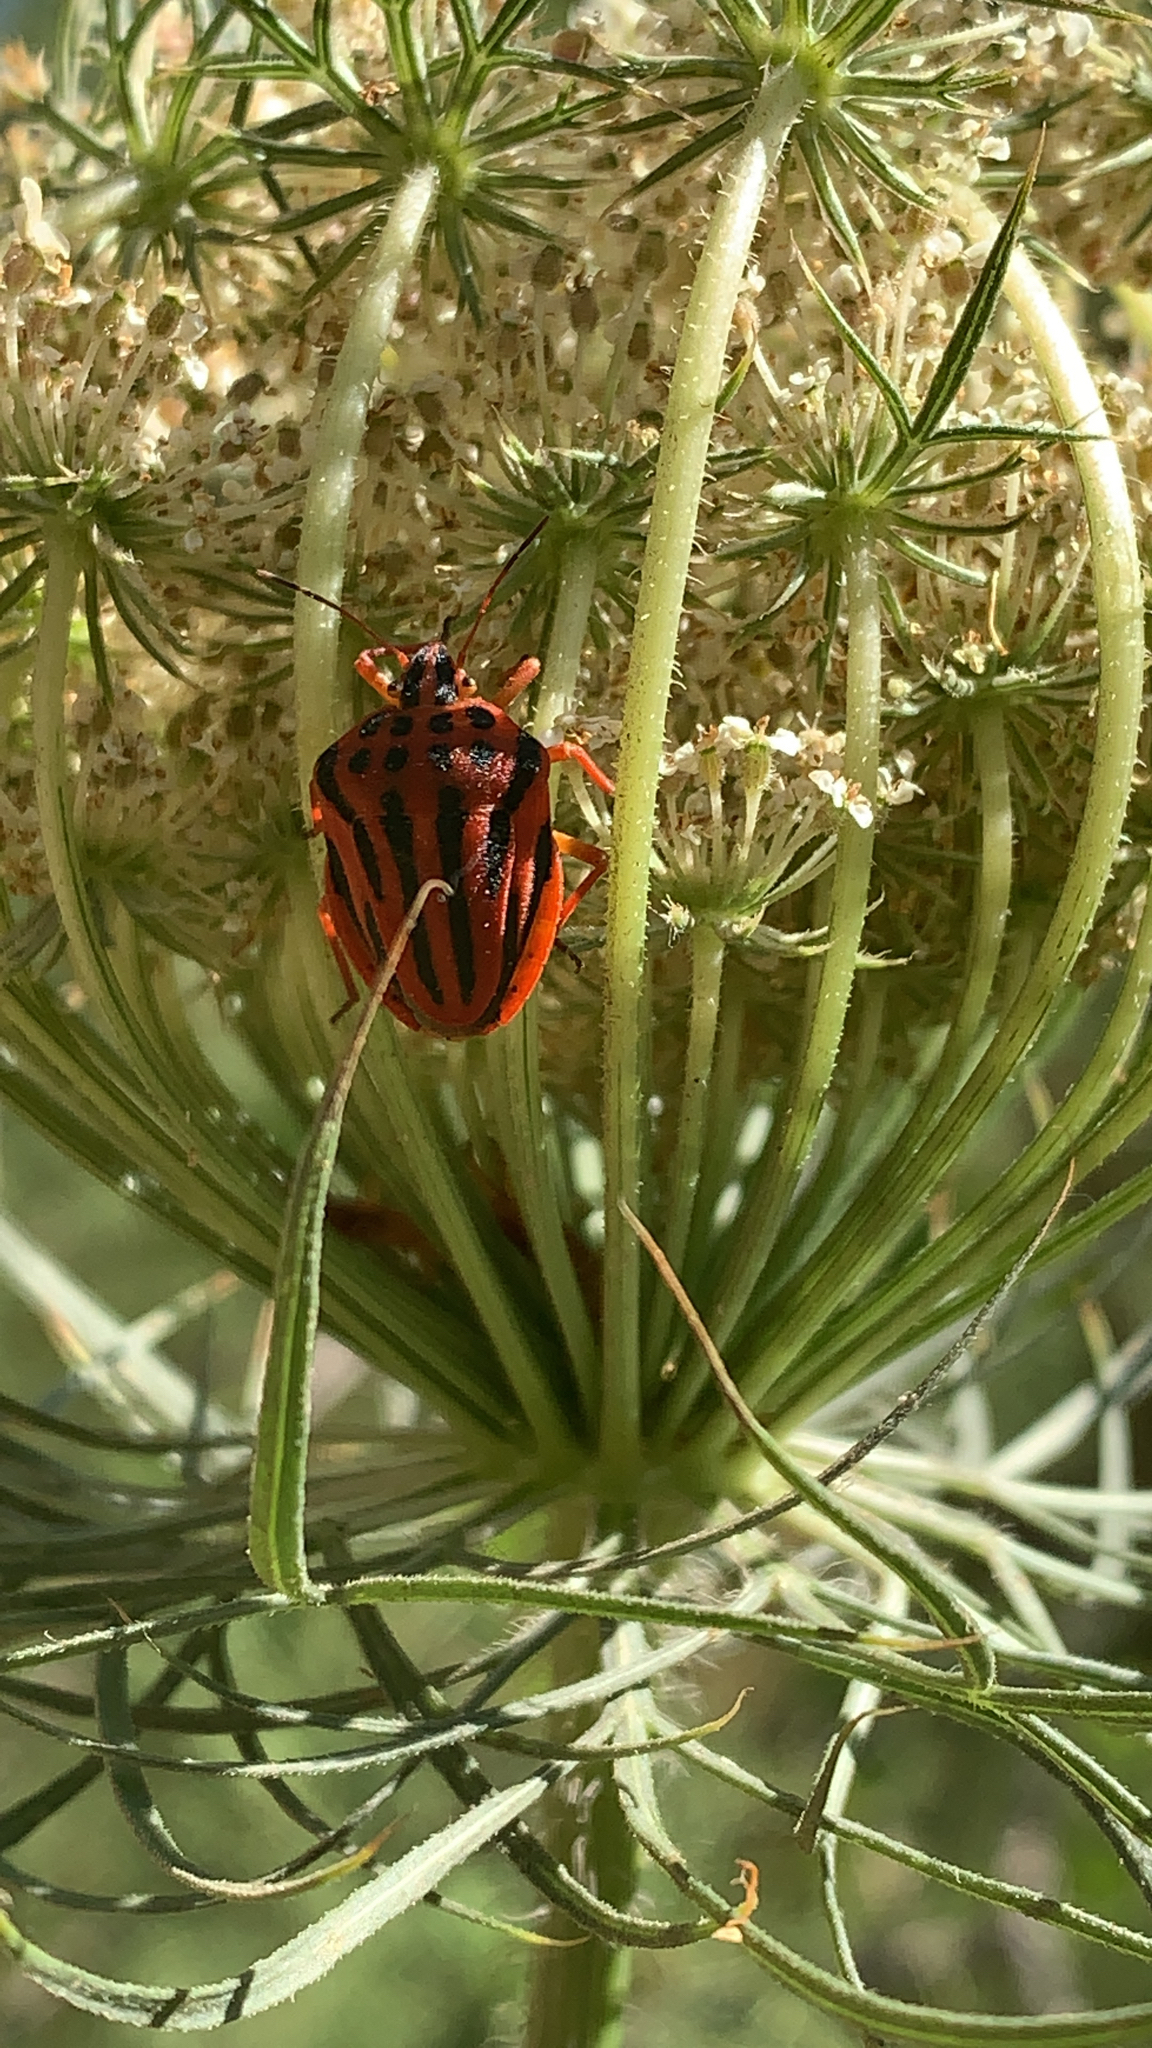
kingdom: Animalia
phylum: Arthropoda
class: Insecta
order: Hemiptera
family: Pentatomidae
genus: Graphosoma
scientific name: Graphosoma semipunctatum
